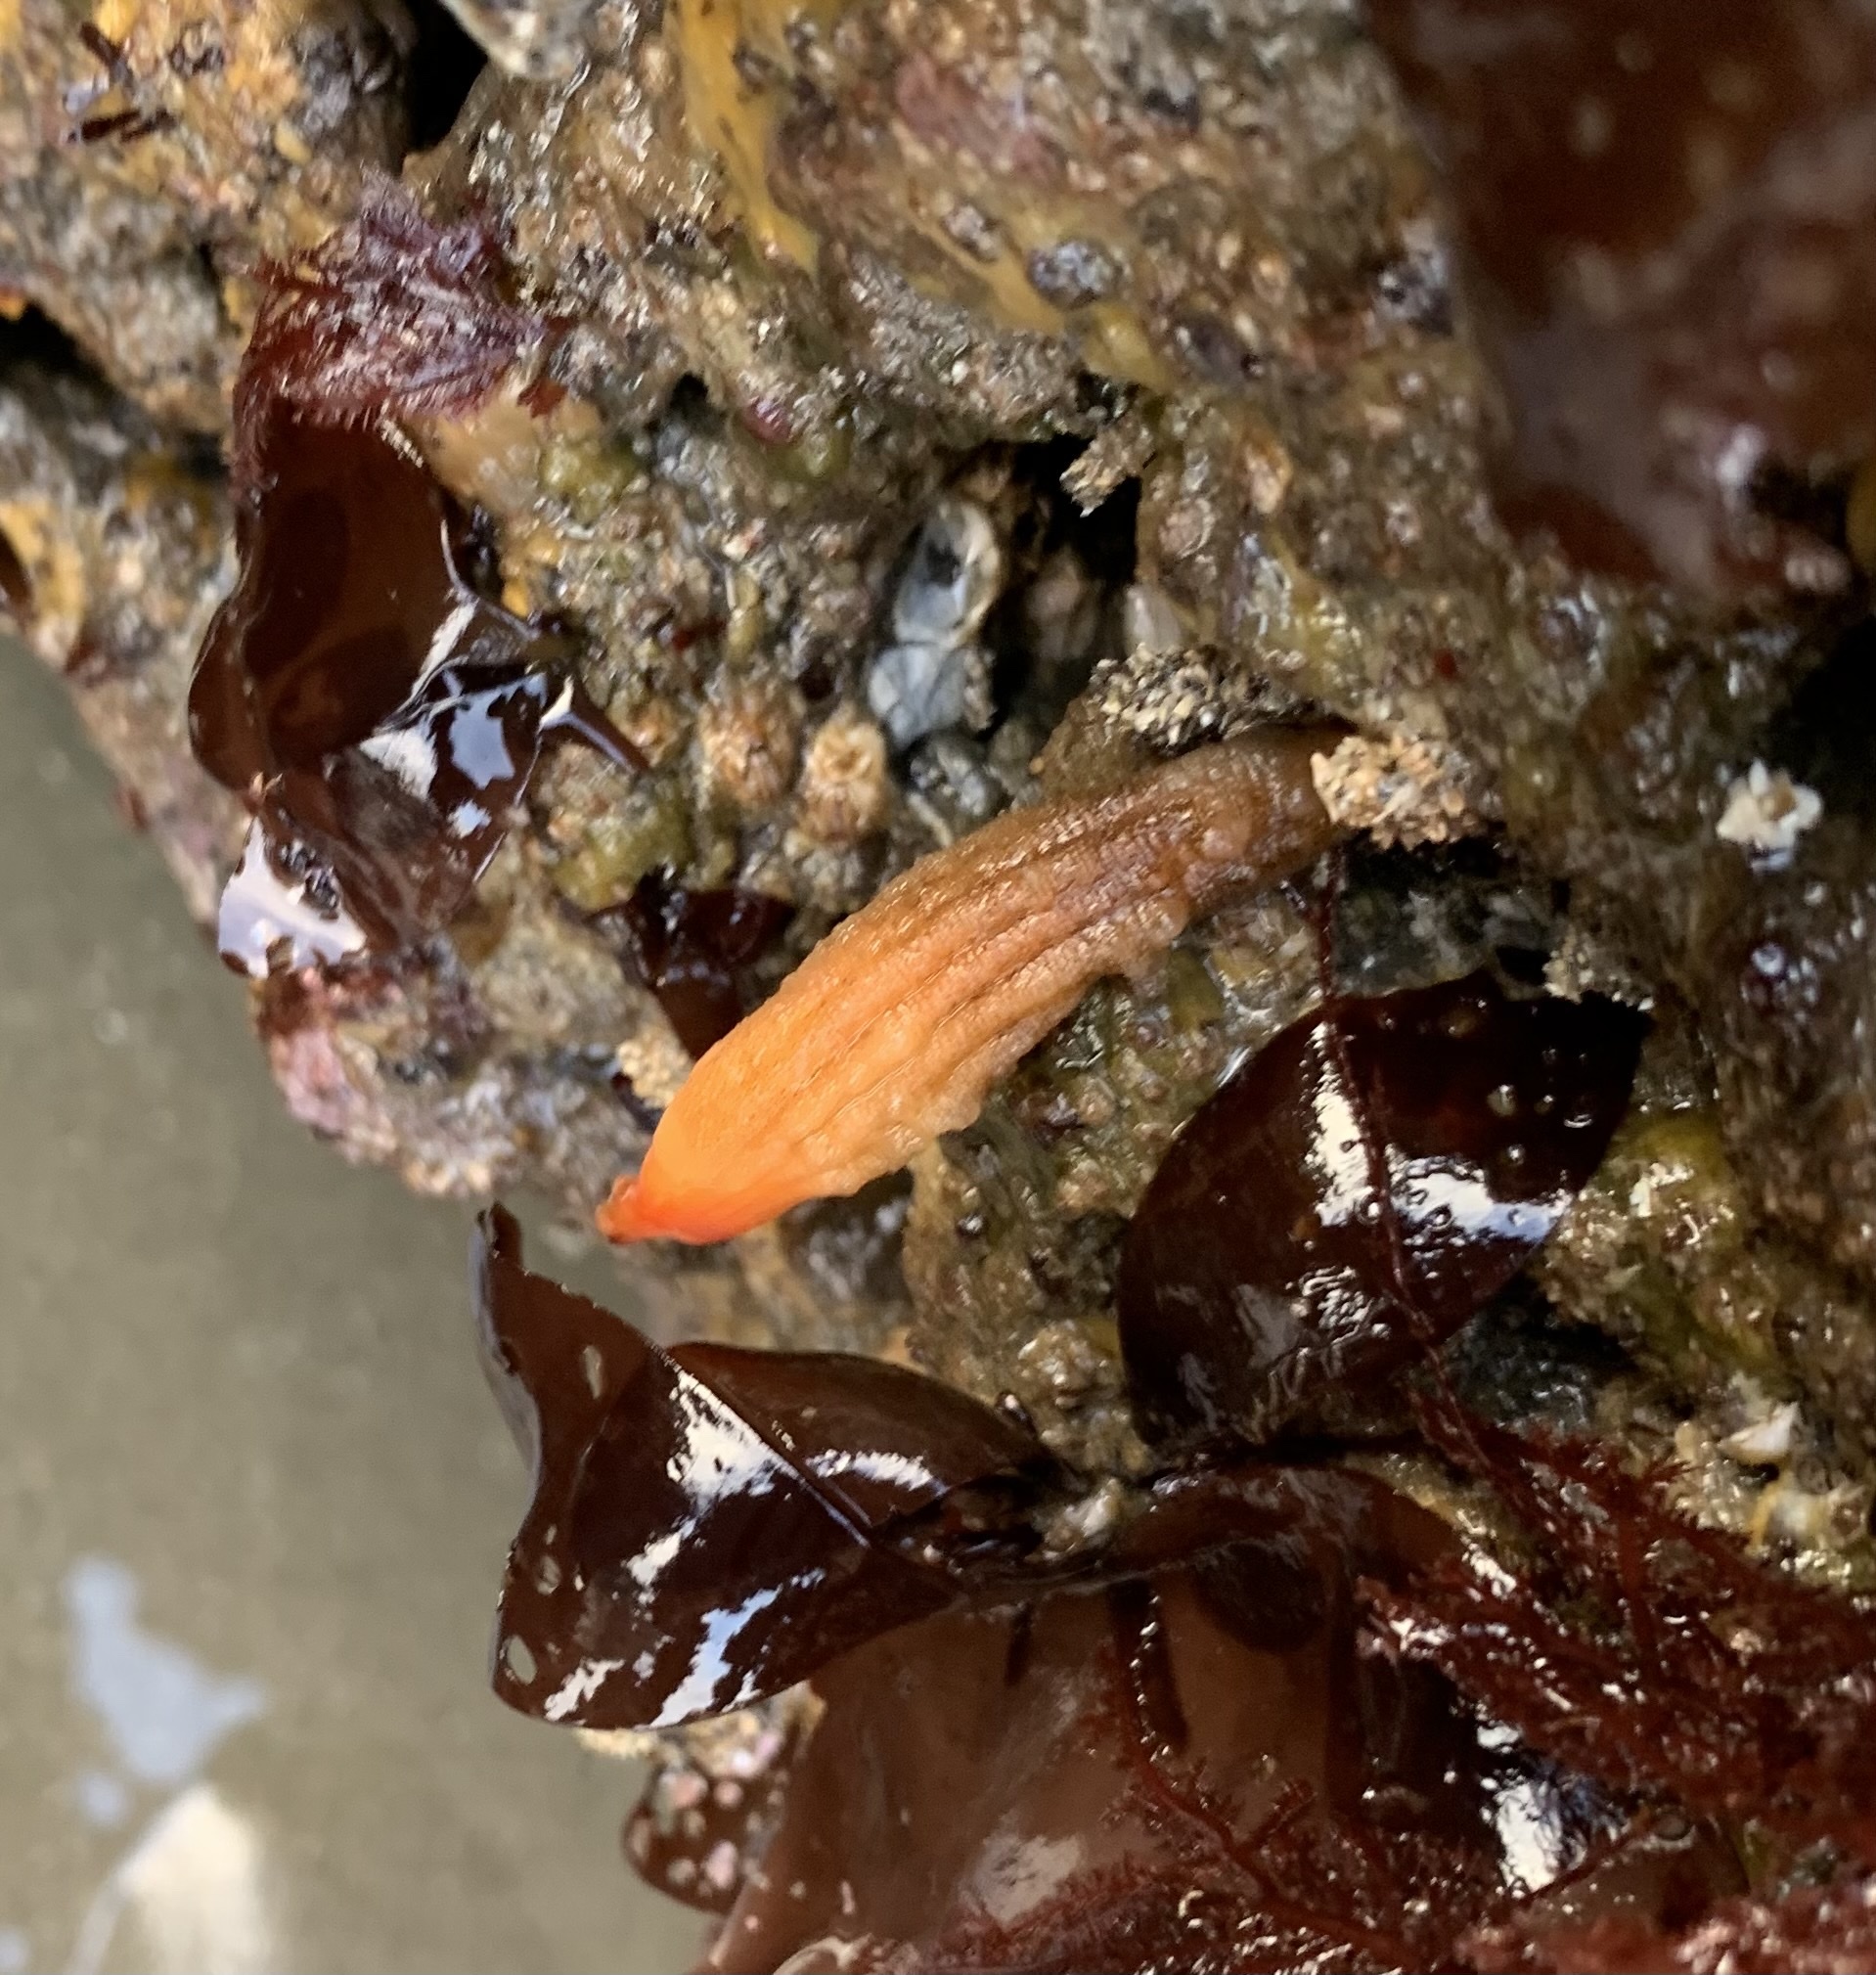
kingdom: Animalia
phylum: Chordata
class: Ascidiacea
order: Stolidobranchia
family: Styelidae
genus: Styela
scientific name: Styela montereyensis
